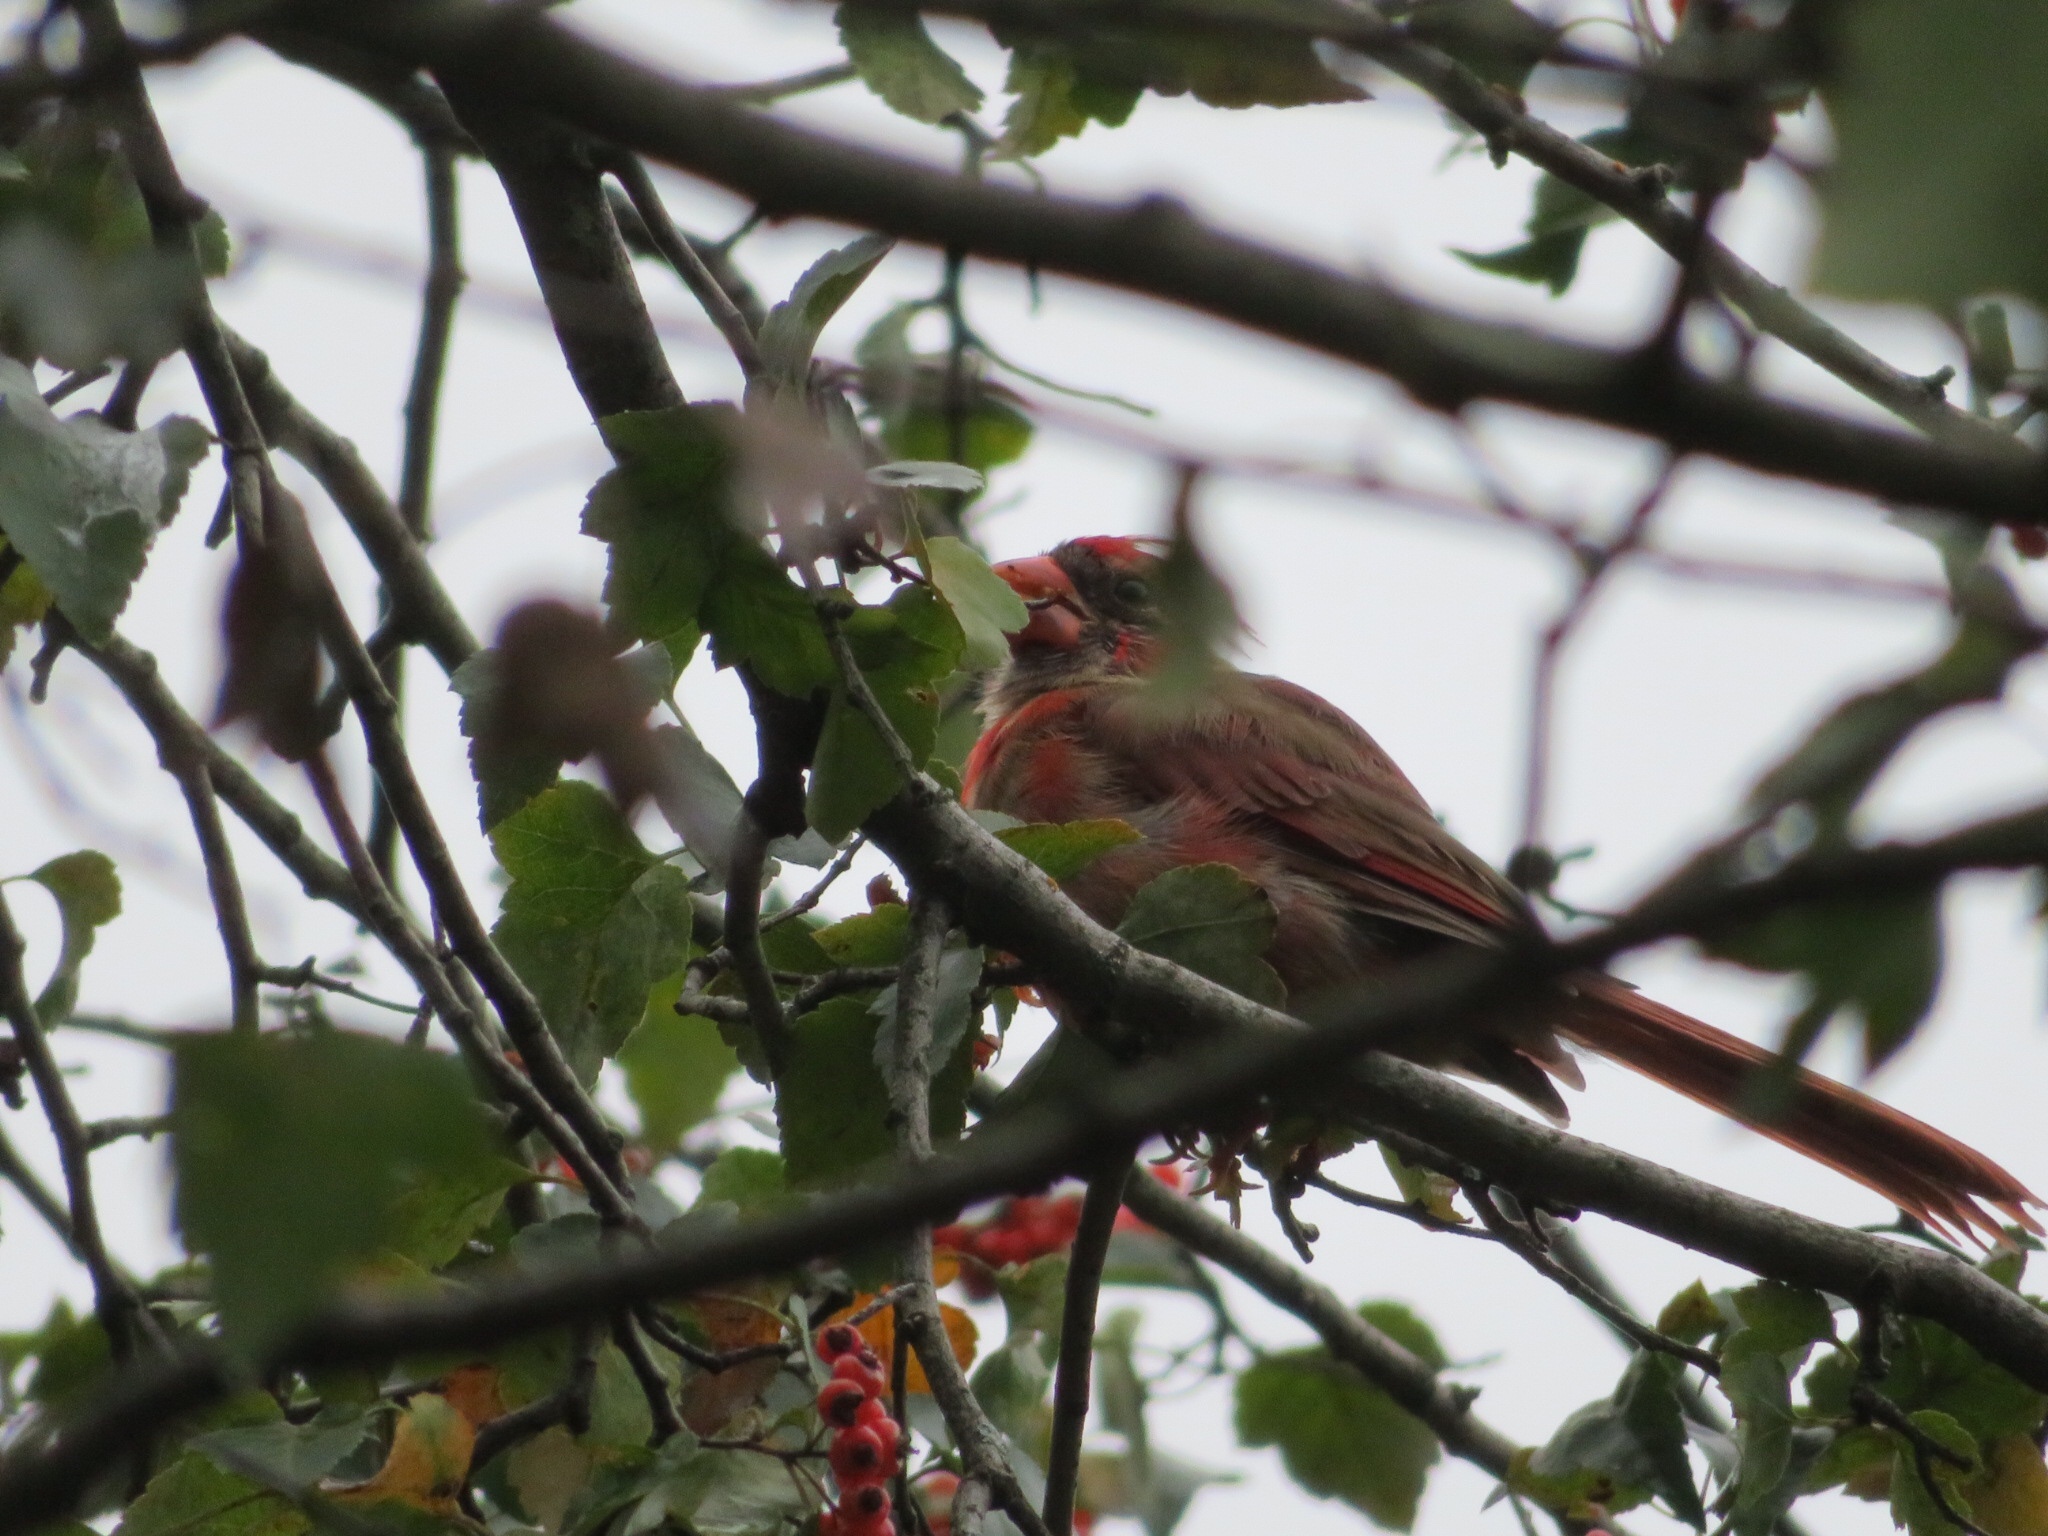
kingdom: Animalia
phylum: Chordata
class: Aves
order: Passeriformes
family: Cardinalidae
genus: Cardinalis
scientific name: Cardinalis cardinalis
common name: Northern cardinal
